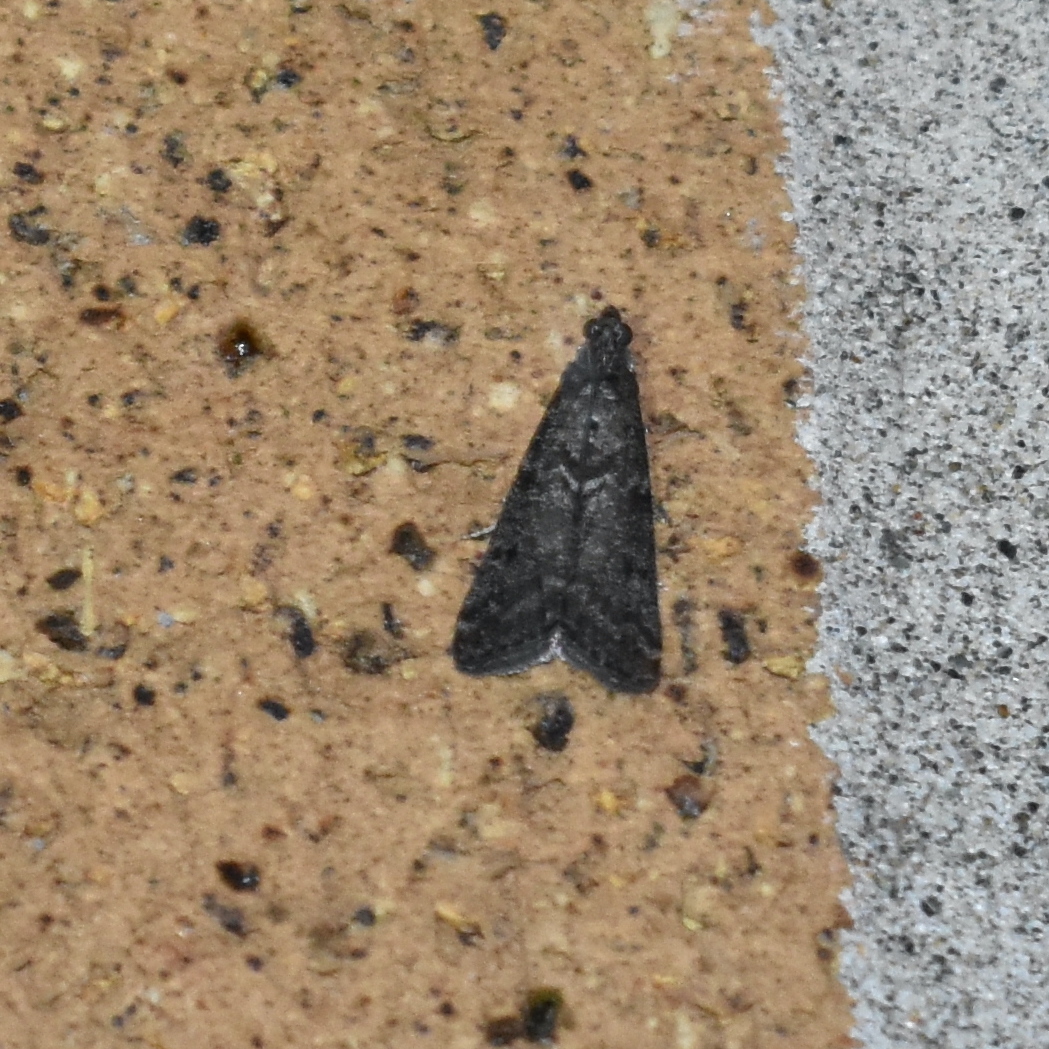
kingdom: Animalia
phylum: Arthropoda
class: Insecta
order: Lepidoptera
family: Pyralidae
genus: Pyla
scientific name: Pyla fusca
